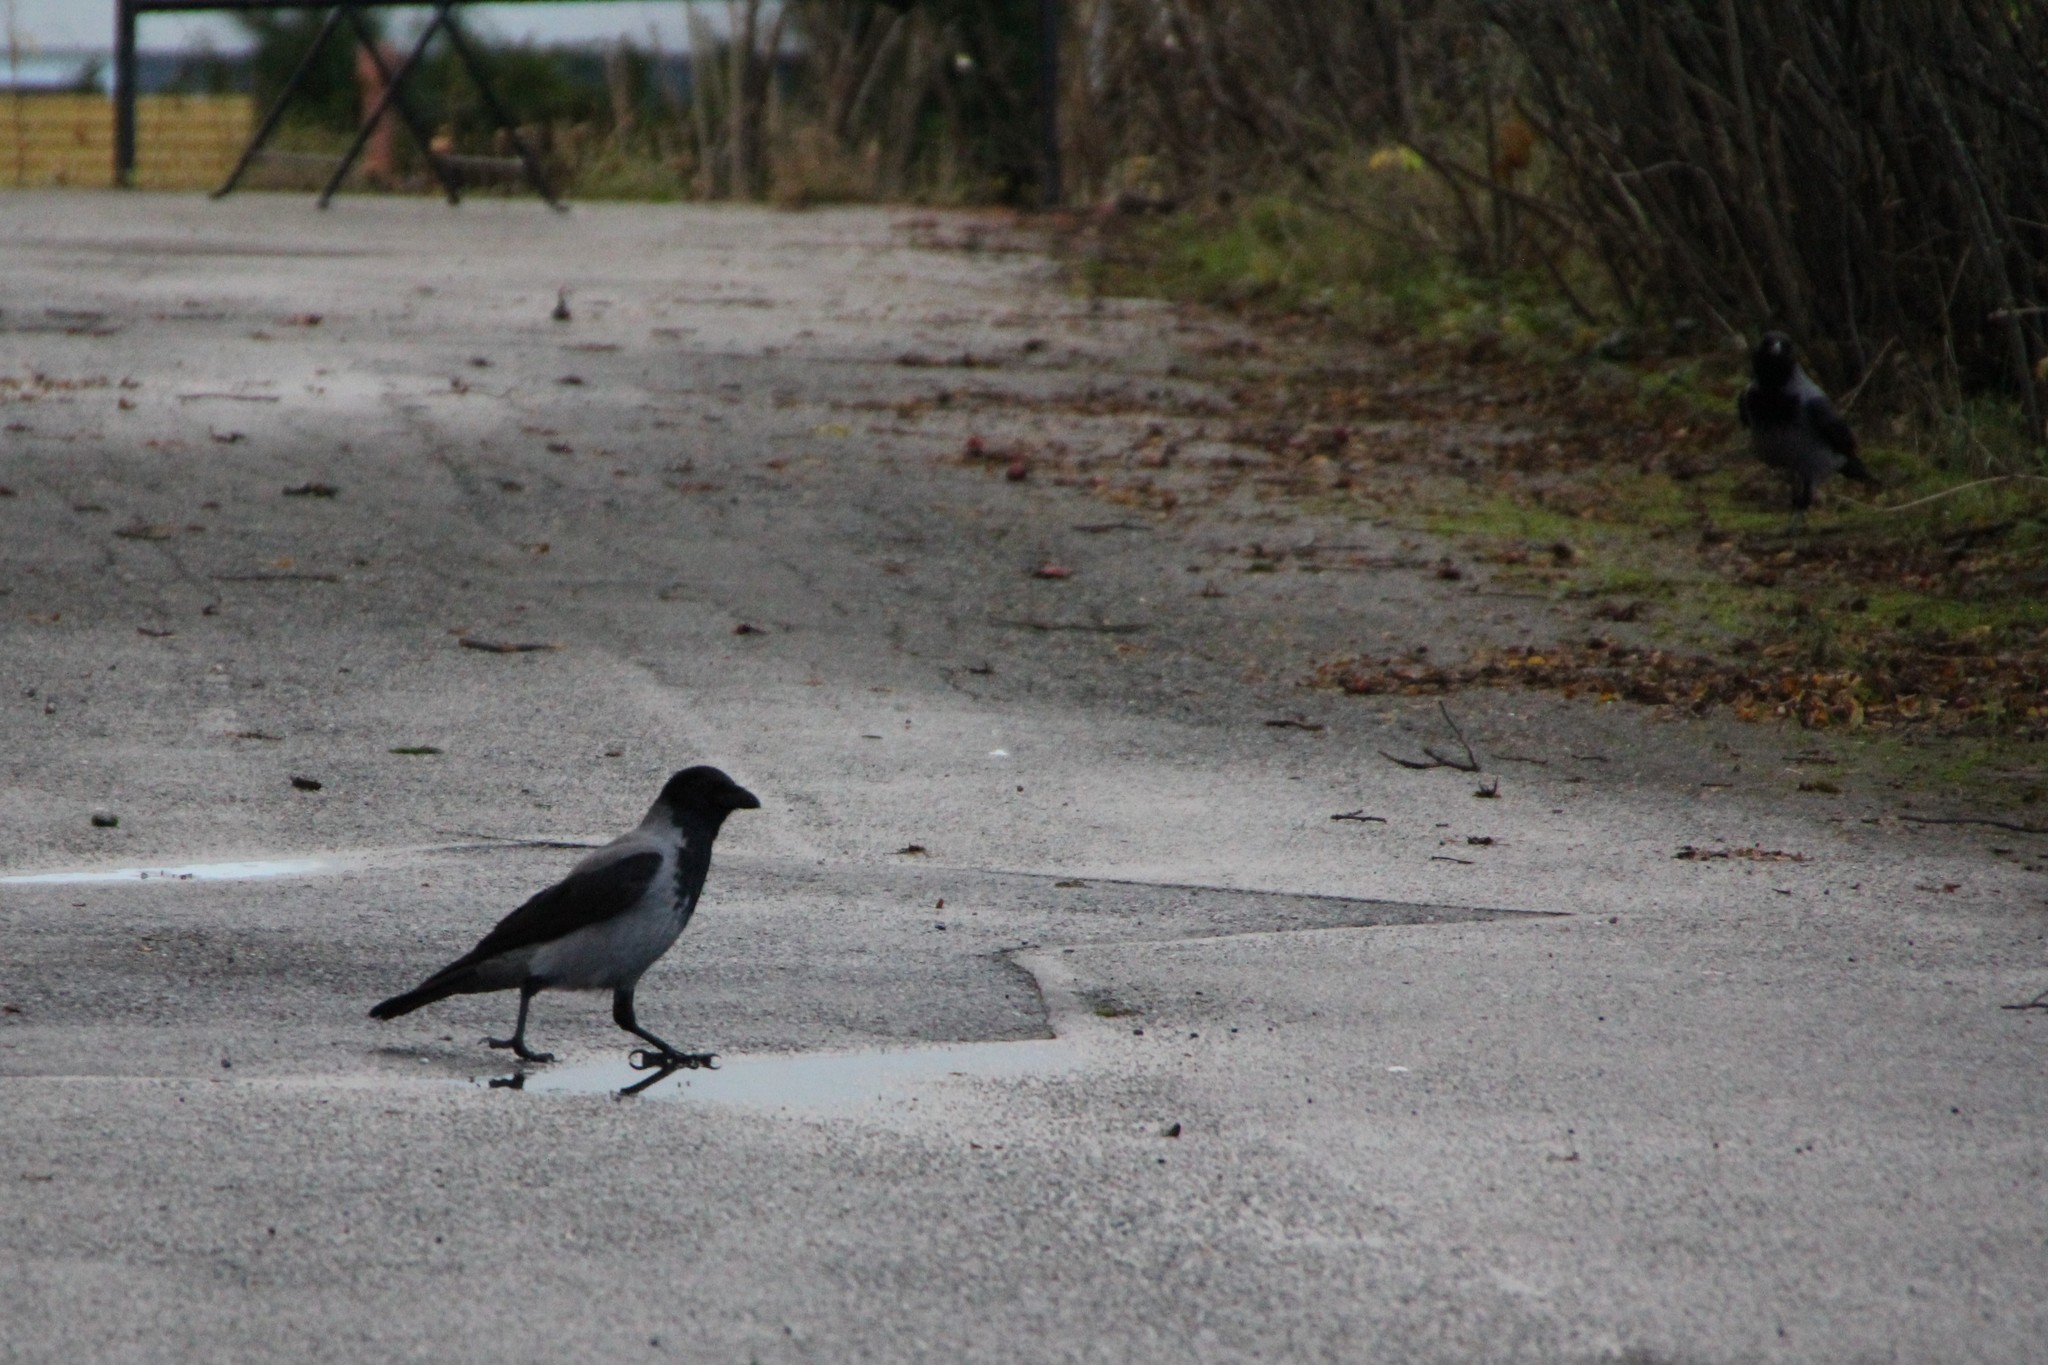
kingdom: Animalia
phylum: Chordata
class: Aves
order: Passeriformes
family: Corvidae
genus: Corvus
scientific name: Corvus cornix
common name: Hooded crow
